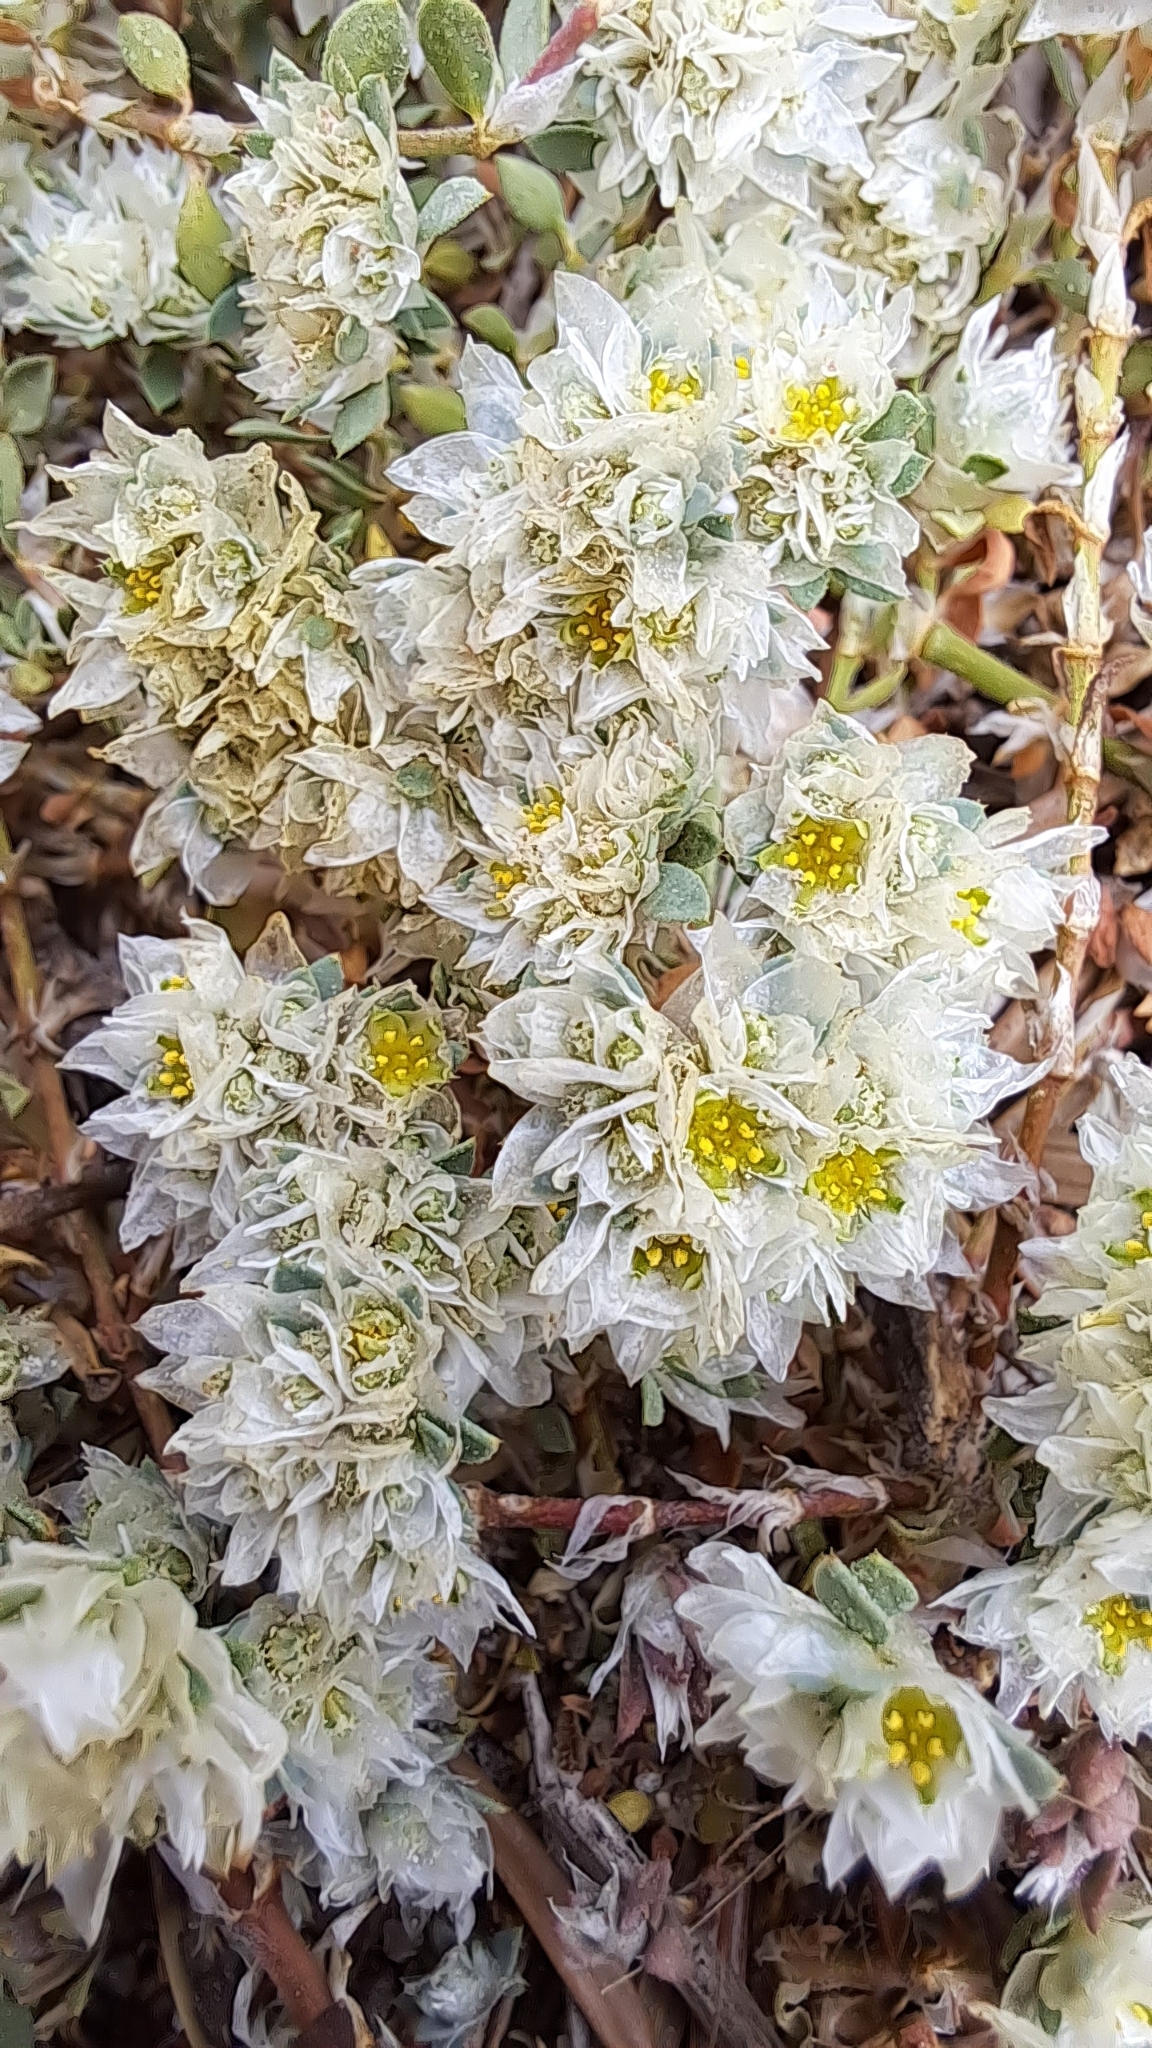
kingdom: Plantae
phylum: Tracheophyta
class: Magnoliopsida
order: Caryophyllales
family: Caryophyllaceae
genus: Paronychia
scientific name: Paronychia argentea
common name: Silver nailroot
